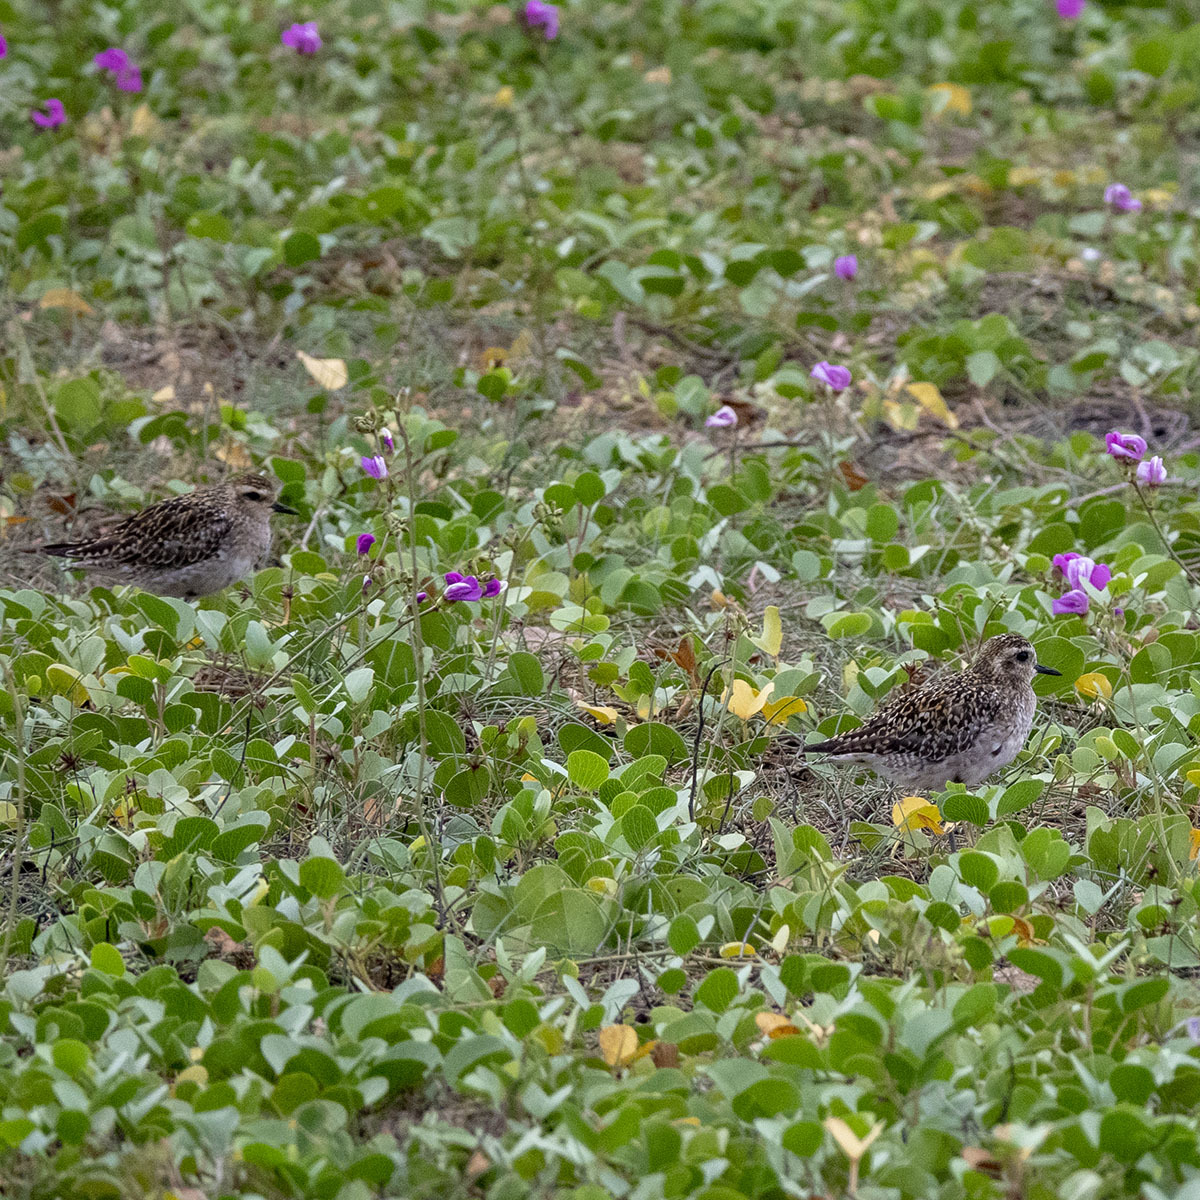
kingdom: Animalia
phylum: Chordata
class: Aves
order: Charadriiformes
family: Charadriidae
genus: Pluvialis
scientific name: Pluvialis fulva
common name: Pacific golden plover
